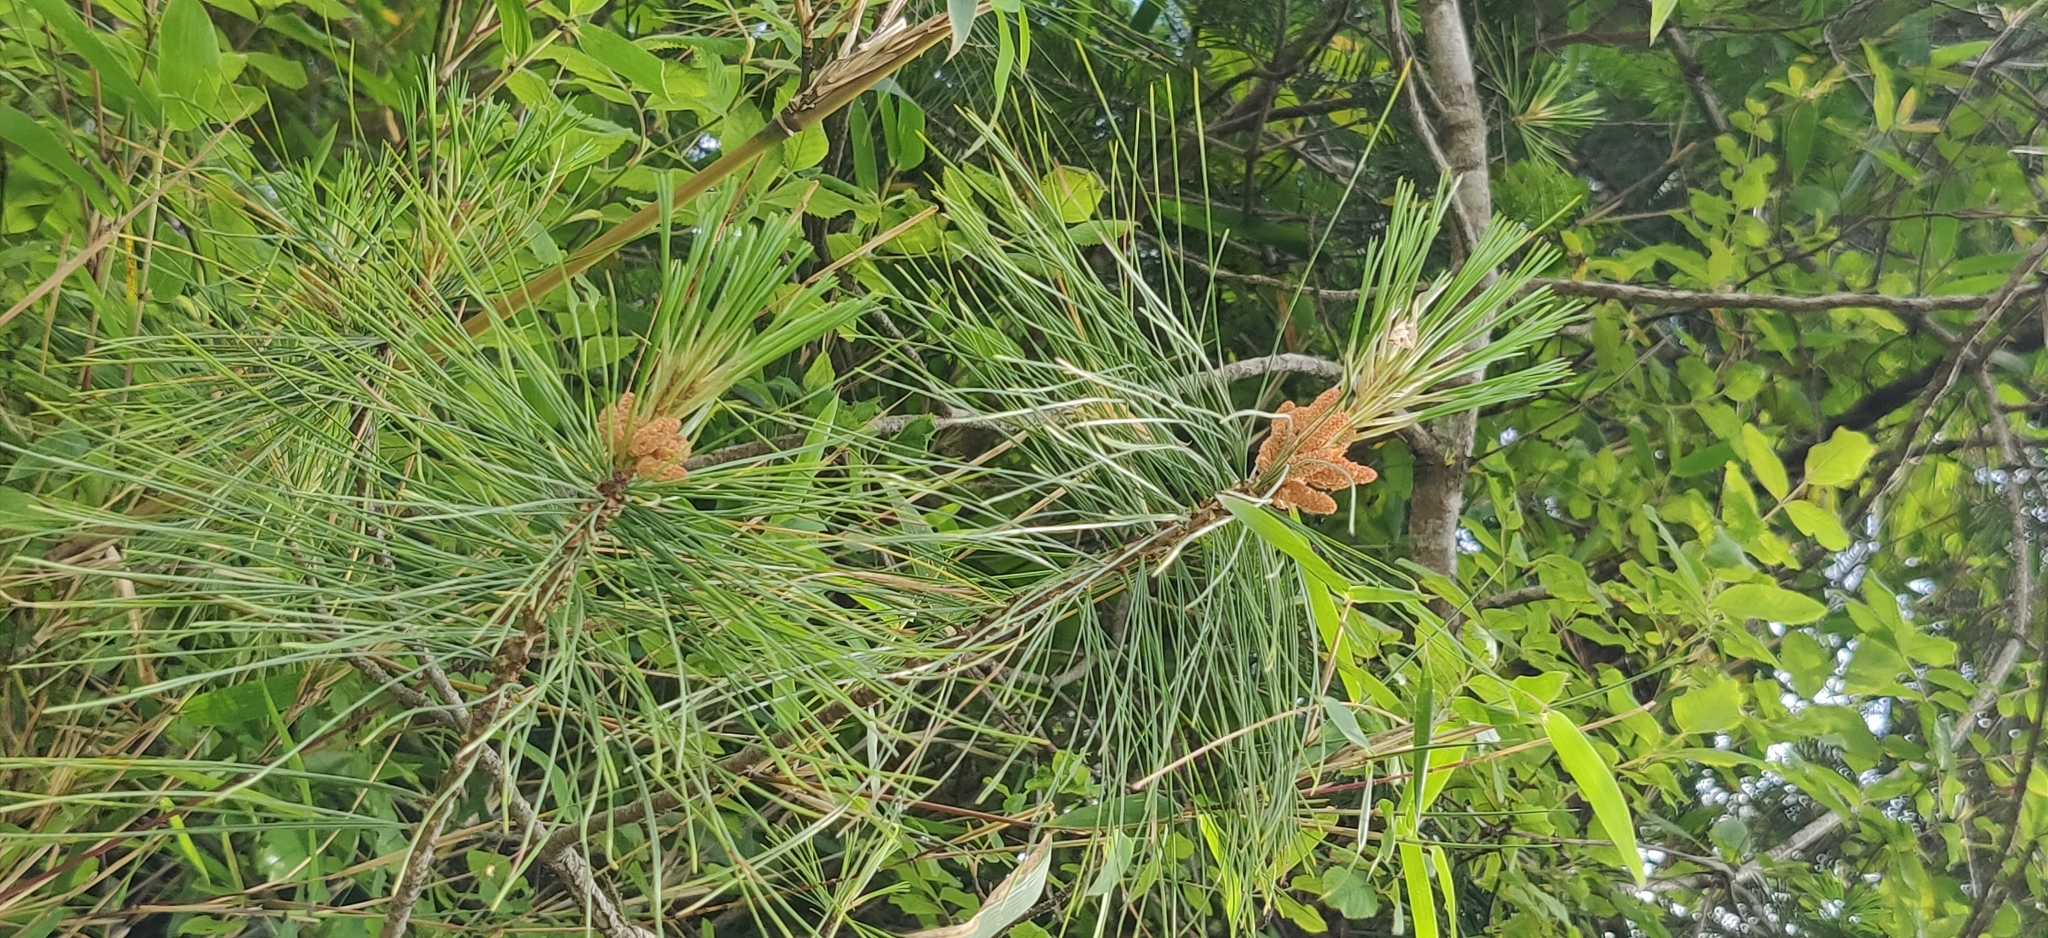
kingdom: Plantae
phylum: Tracheophyta
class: Pinopsida
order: Pinales
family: Pinaceae
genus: Pinus
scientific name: Pinus wallichiana
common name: Bhutan pine
